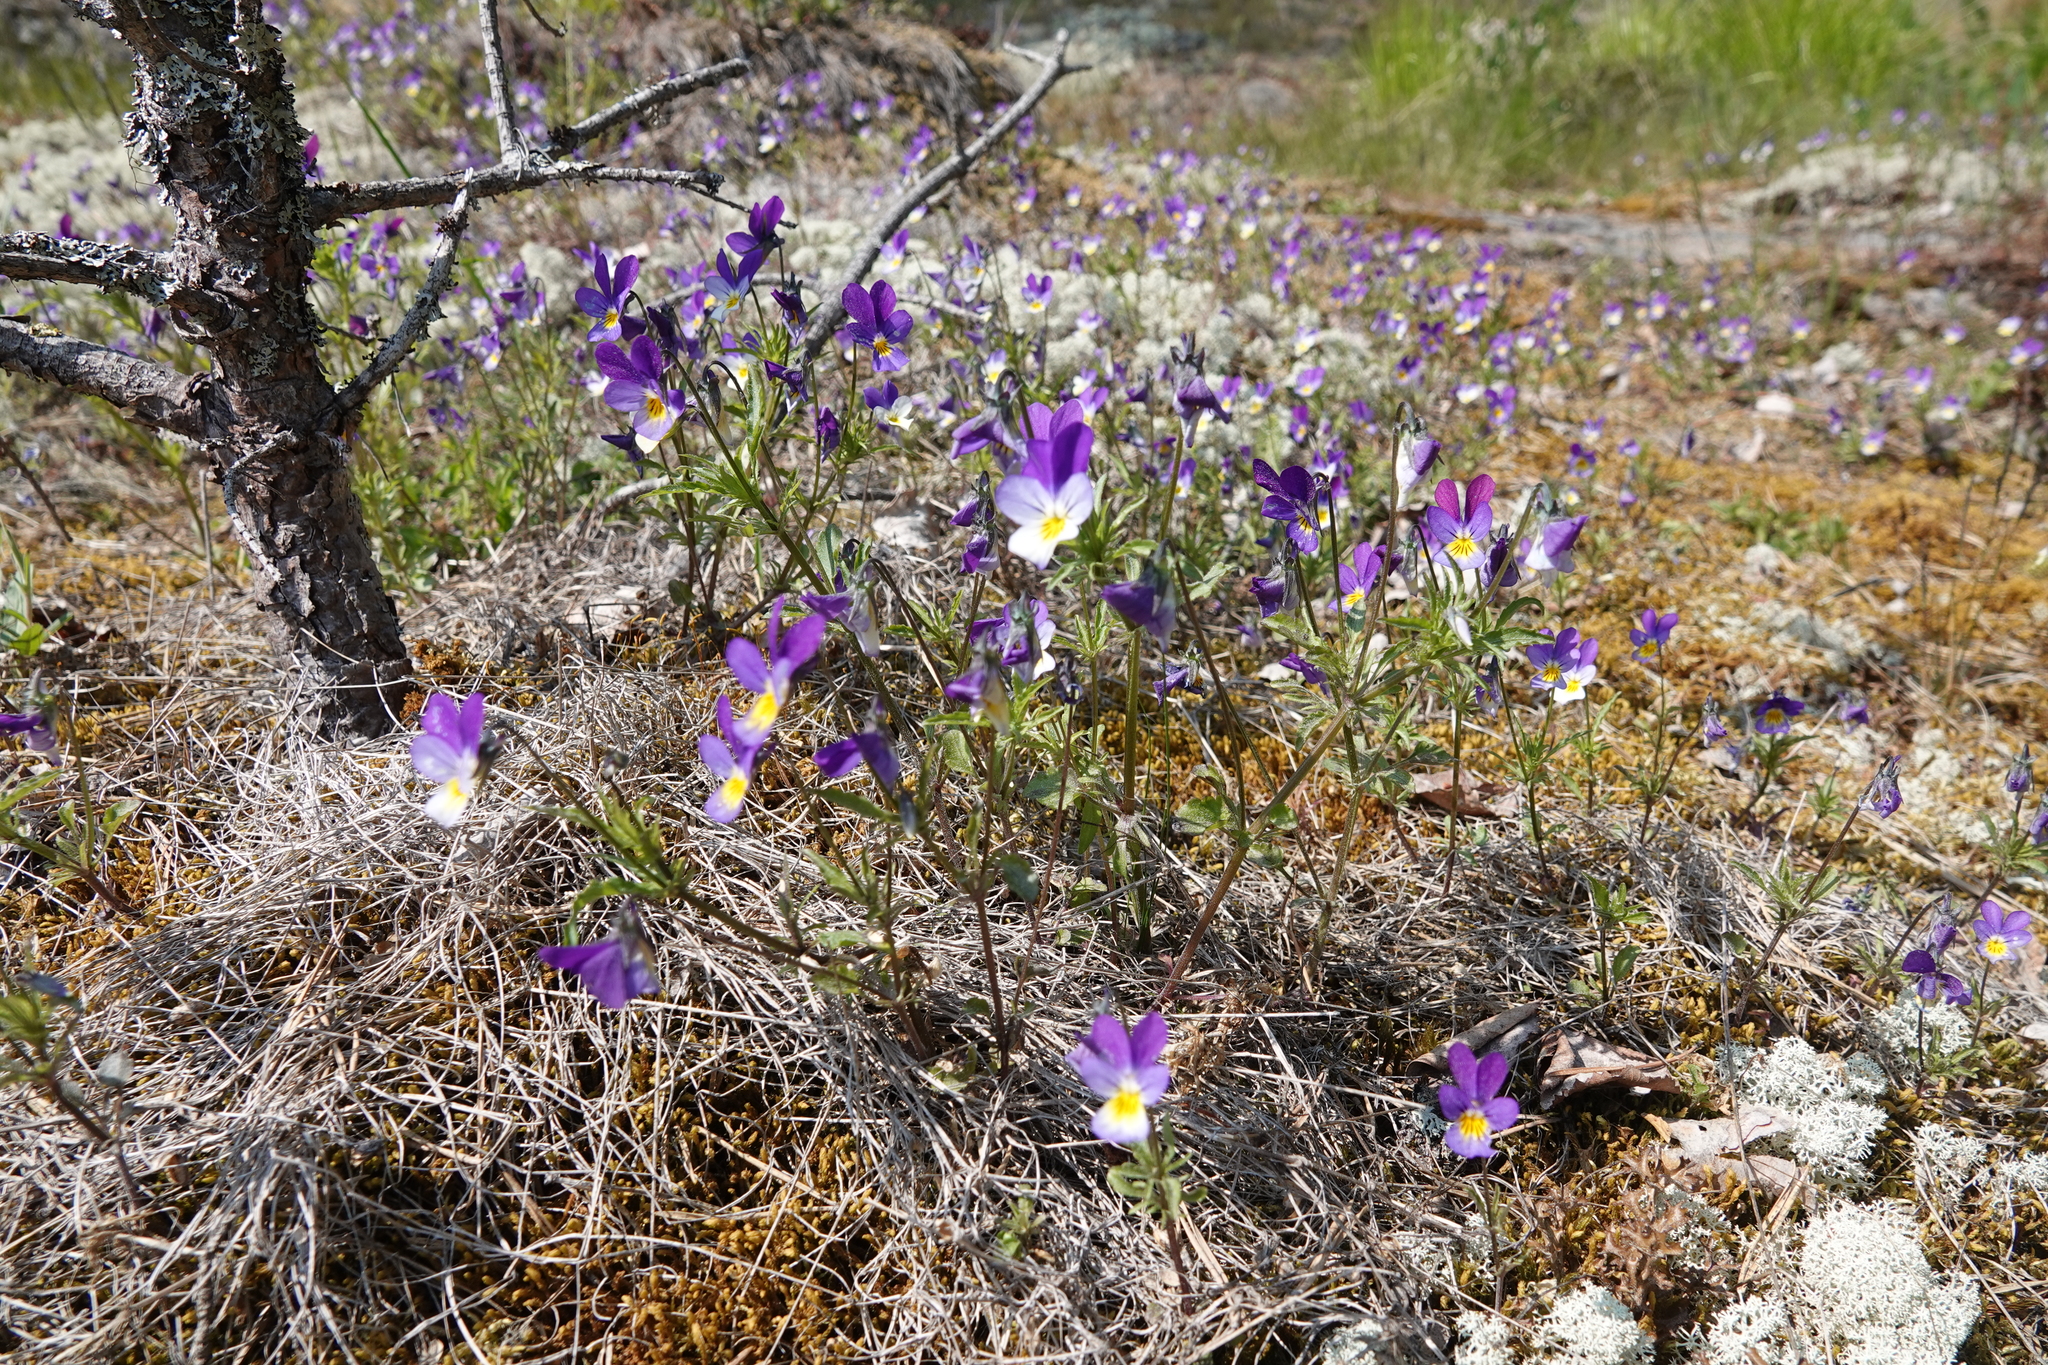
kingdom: Plantae
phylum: Tracheophyta
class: Magnoliopsida
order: Malpighiales
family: Violaceae
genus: Viola
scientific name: Viola tricolor
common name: Pansy
